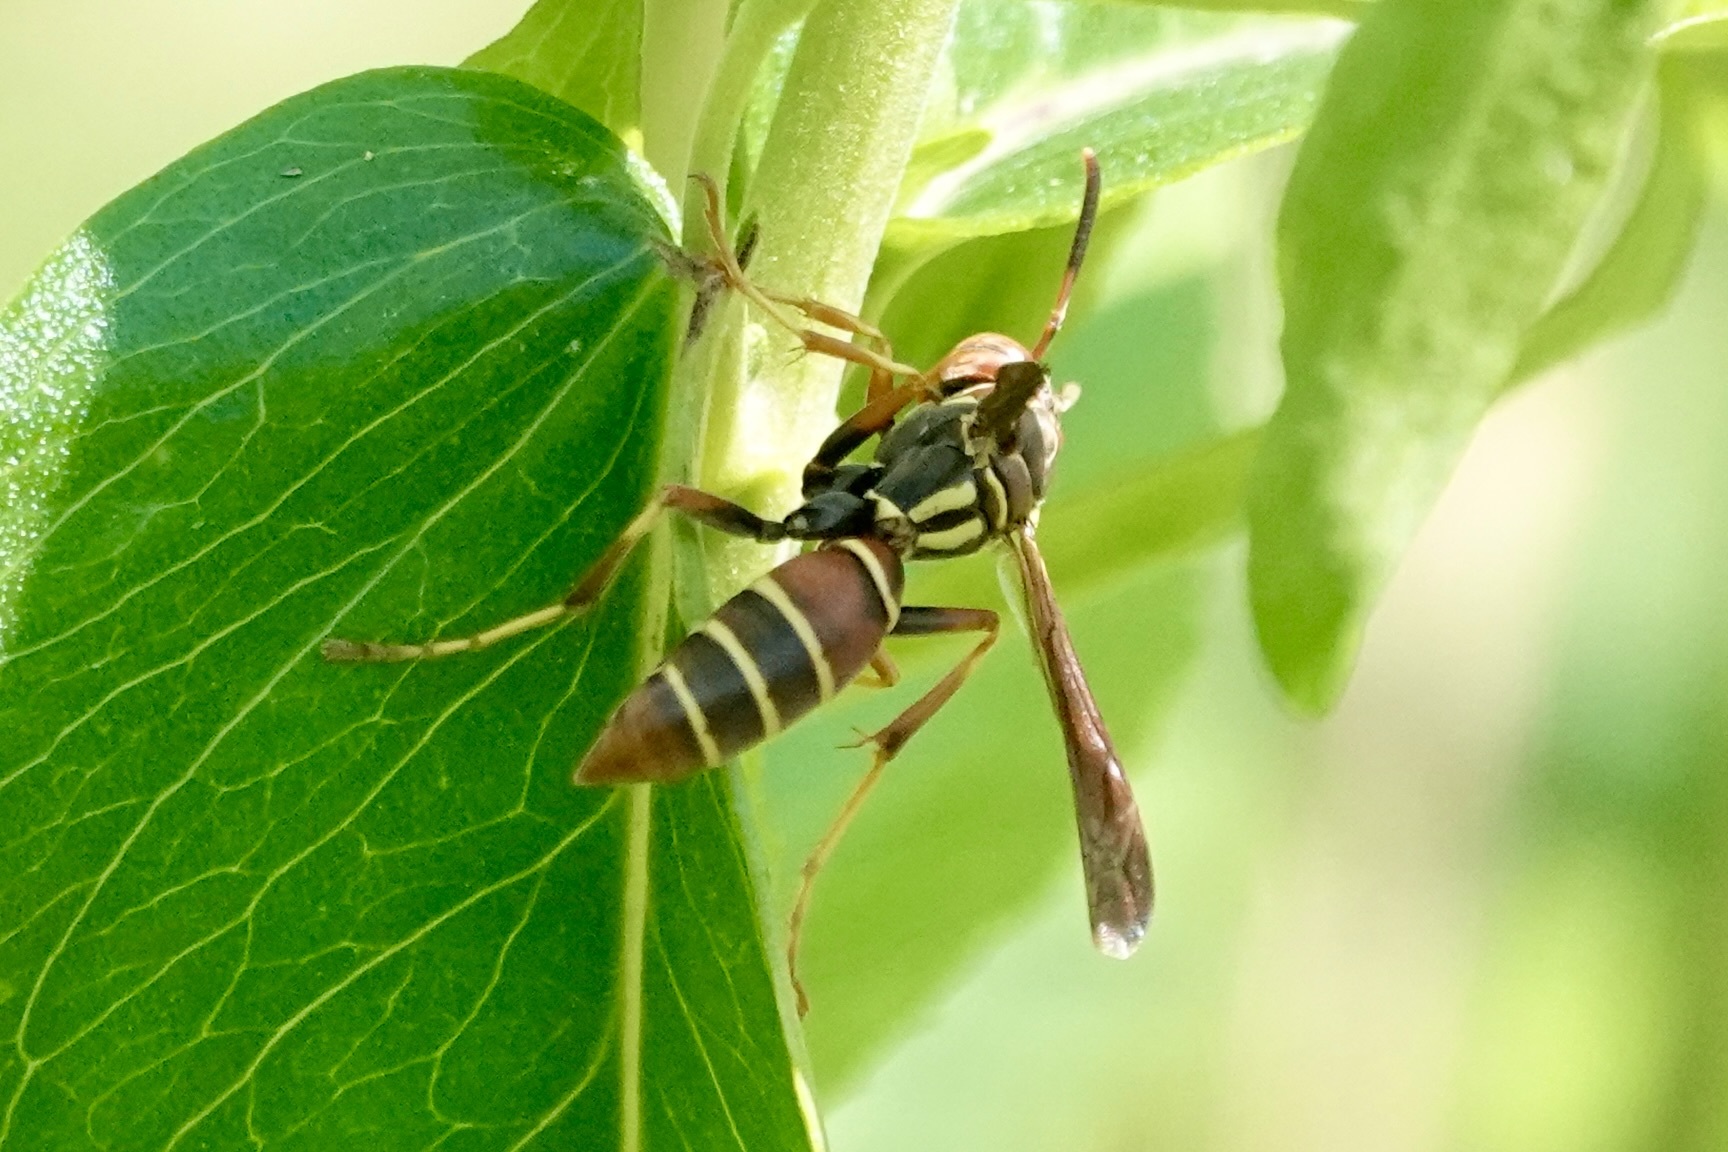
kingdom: Animalia
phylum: Arthropoda
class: Insecta
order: Hymenoptera
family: Eumenidae
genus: Polistes
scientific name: Polistes dorsalis
